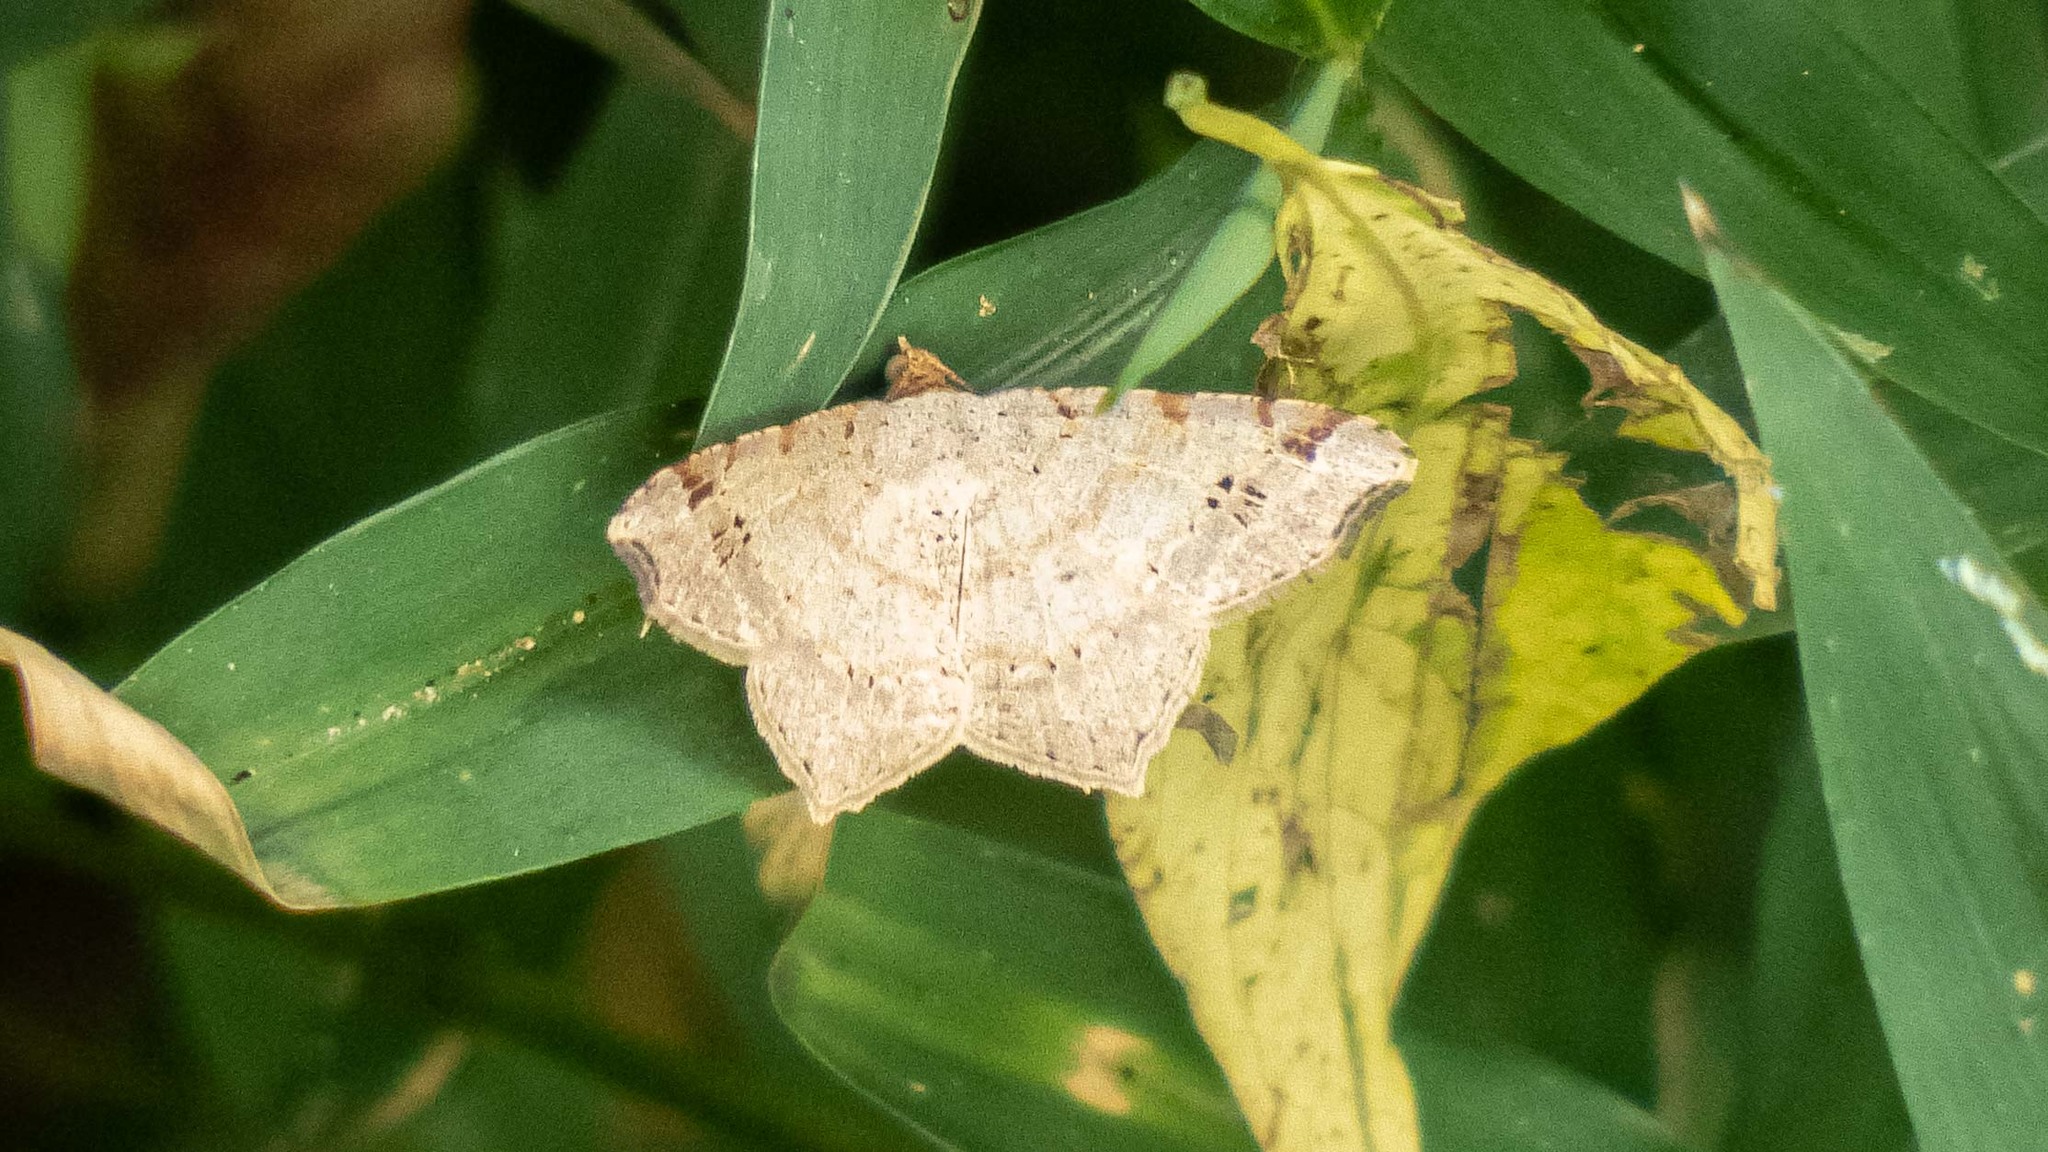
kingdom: Animalia
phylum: Arthropoda
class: Insecta
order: Lepidoptera
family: Geometridae
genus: Macaria
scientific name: Macaria aemulataria
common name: Common angle
